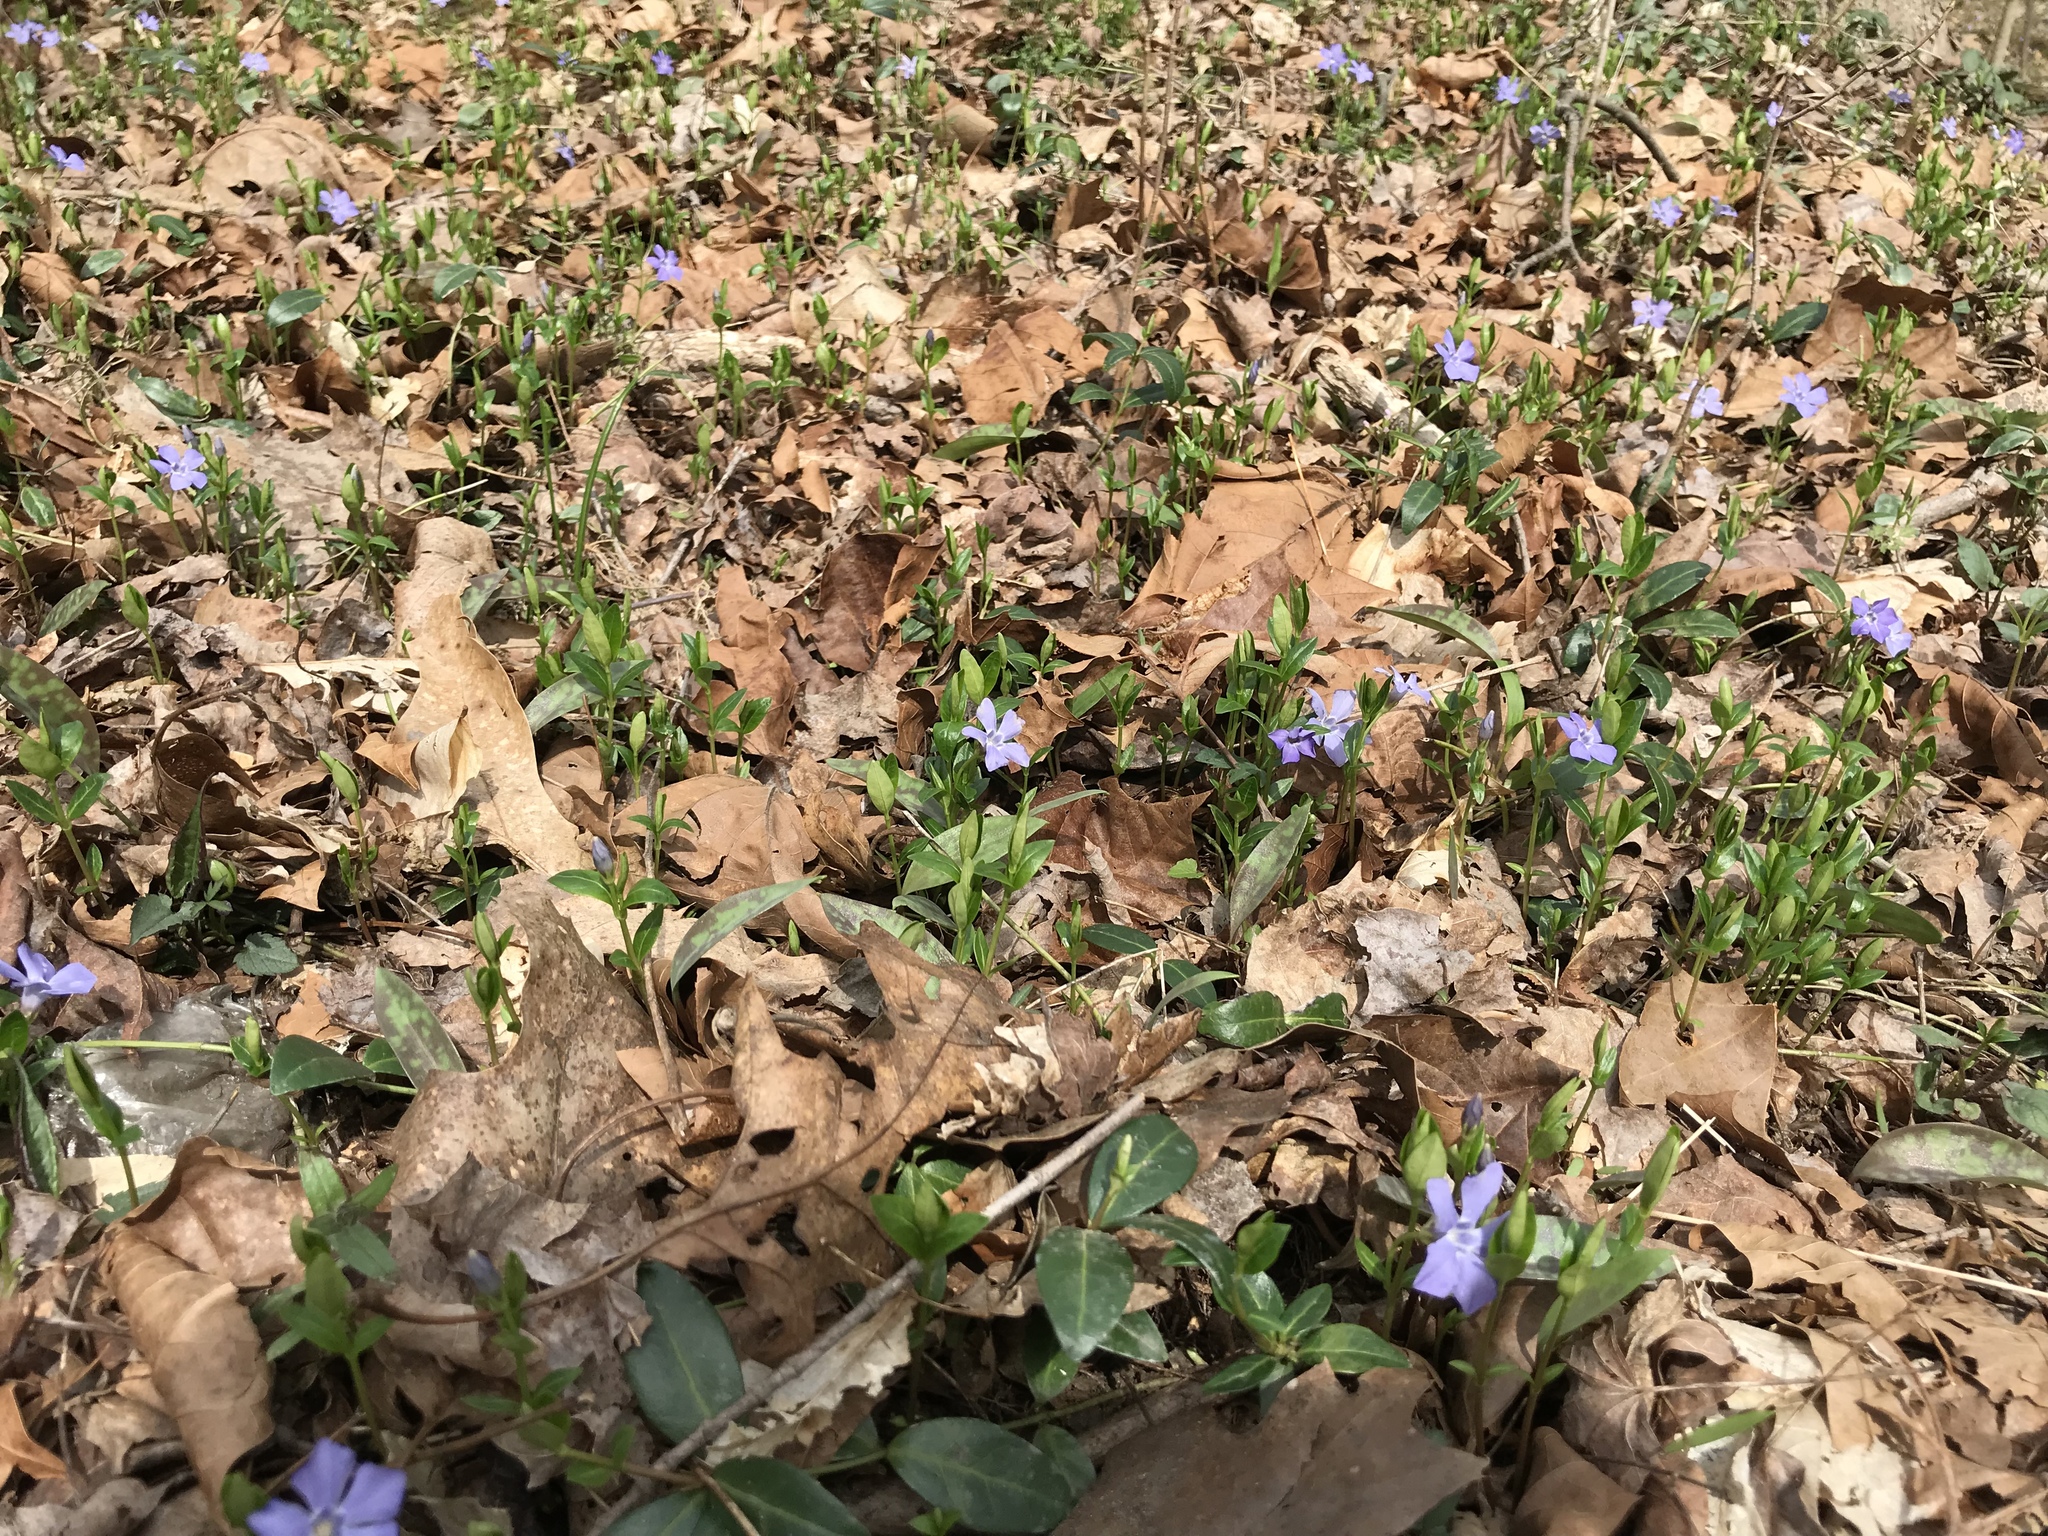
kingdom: Plantae
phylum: Tracheophyta
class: Magnoliopsida
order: Gentianales
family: Apocynaceae
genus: Vinca
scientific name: Vinca minor
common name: Lesser periwinkle
